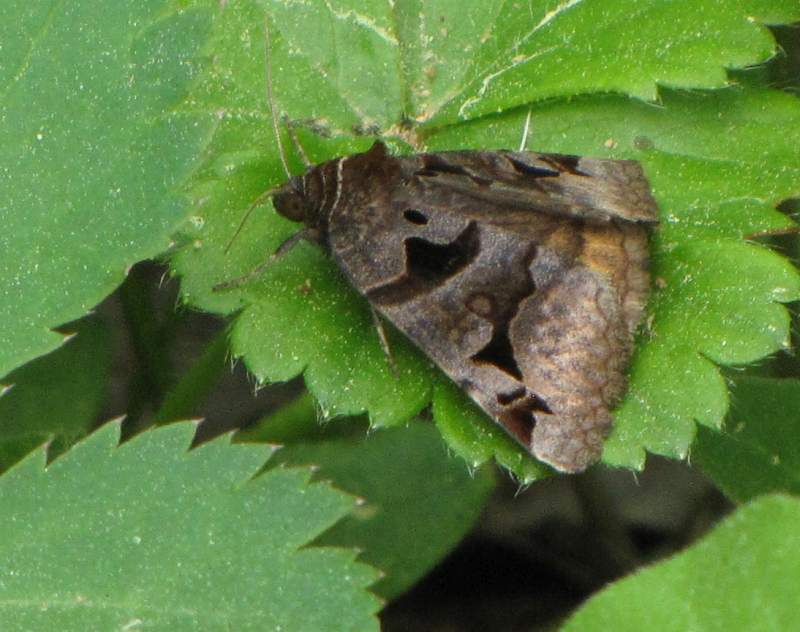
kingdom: Animalia
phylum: Arthropoda
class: Insecta
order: Lepidoptera
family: Erebidae
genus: Euclidia
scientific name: Euclidia cuspidea
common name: Toothed somberwing
